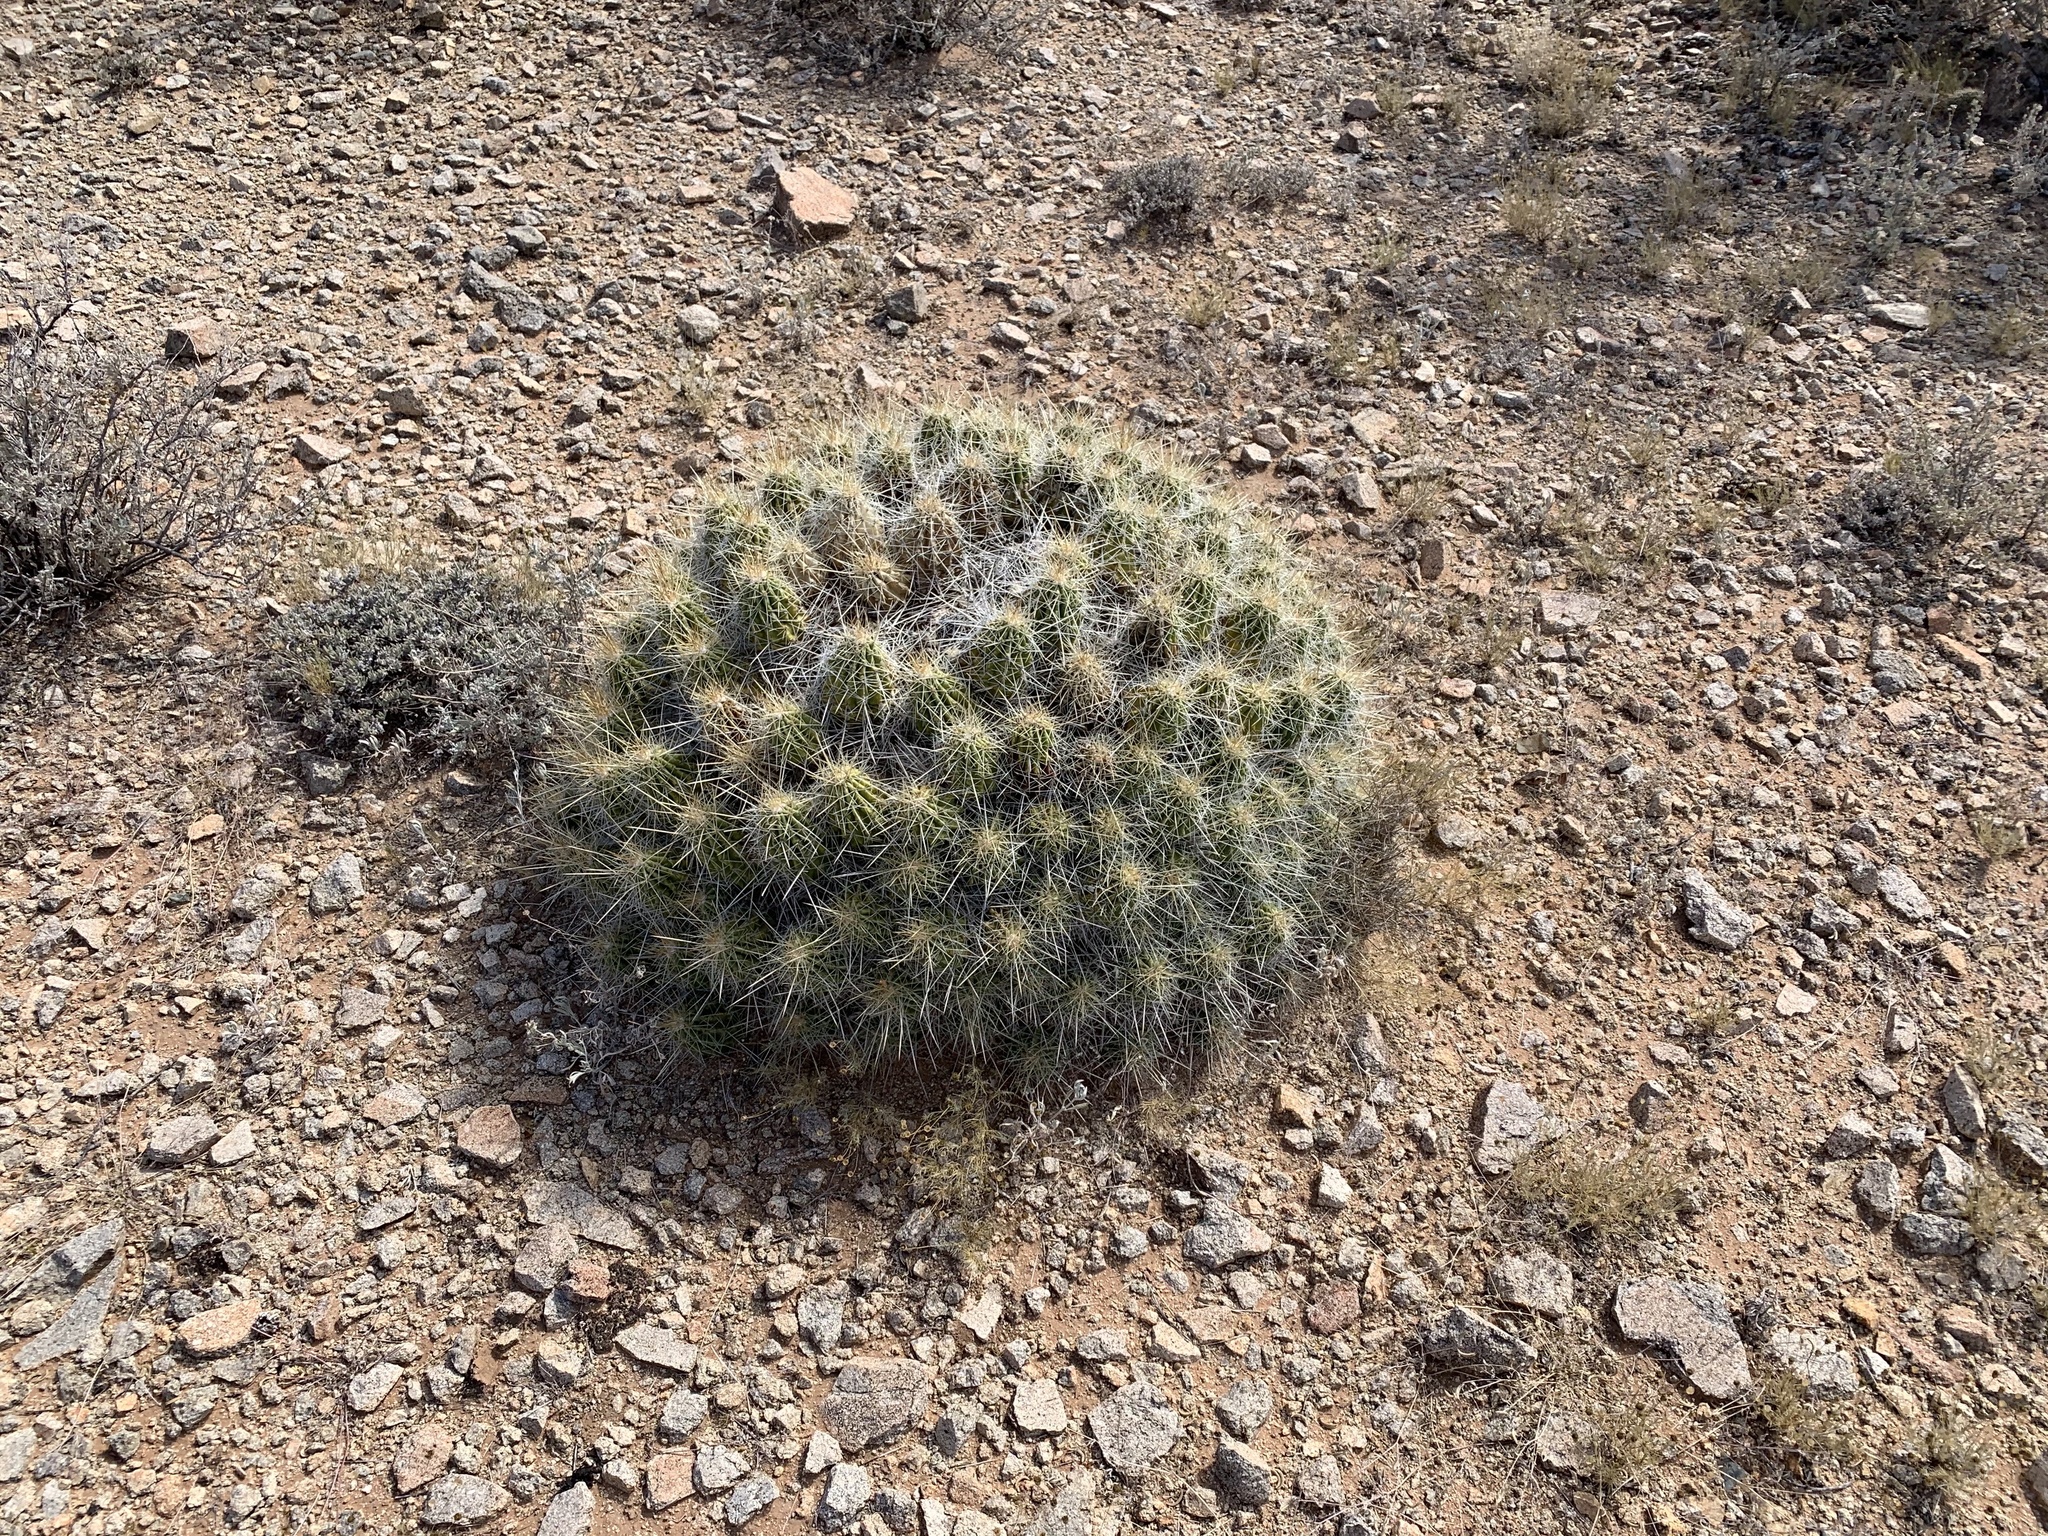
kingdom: Plantae
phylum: Tracheophyta
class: Magnoliopsida
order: Caryophyllales
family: Cactaceae
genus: Echinocereus
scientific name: Echinocereus stramineus
